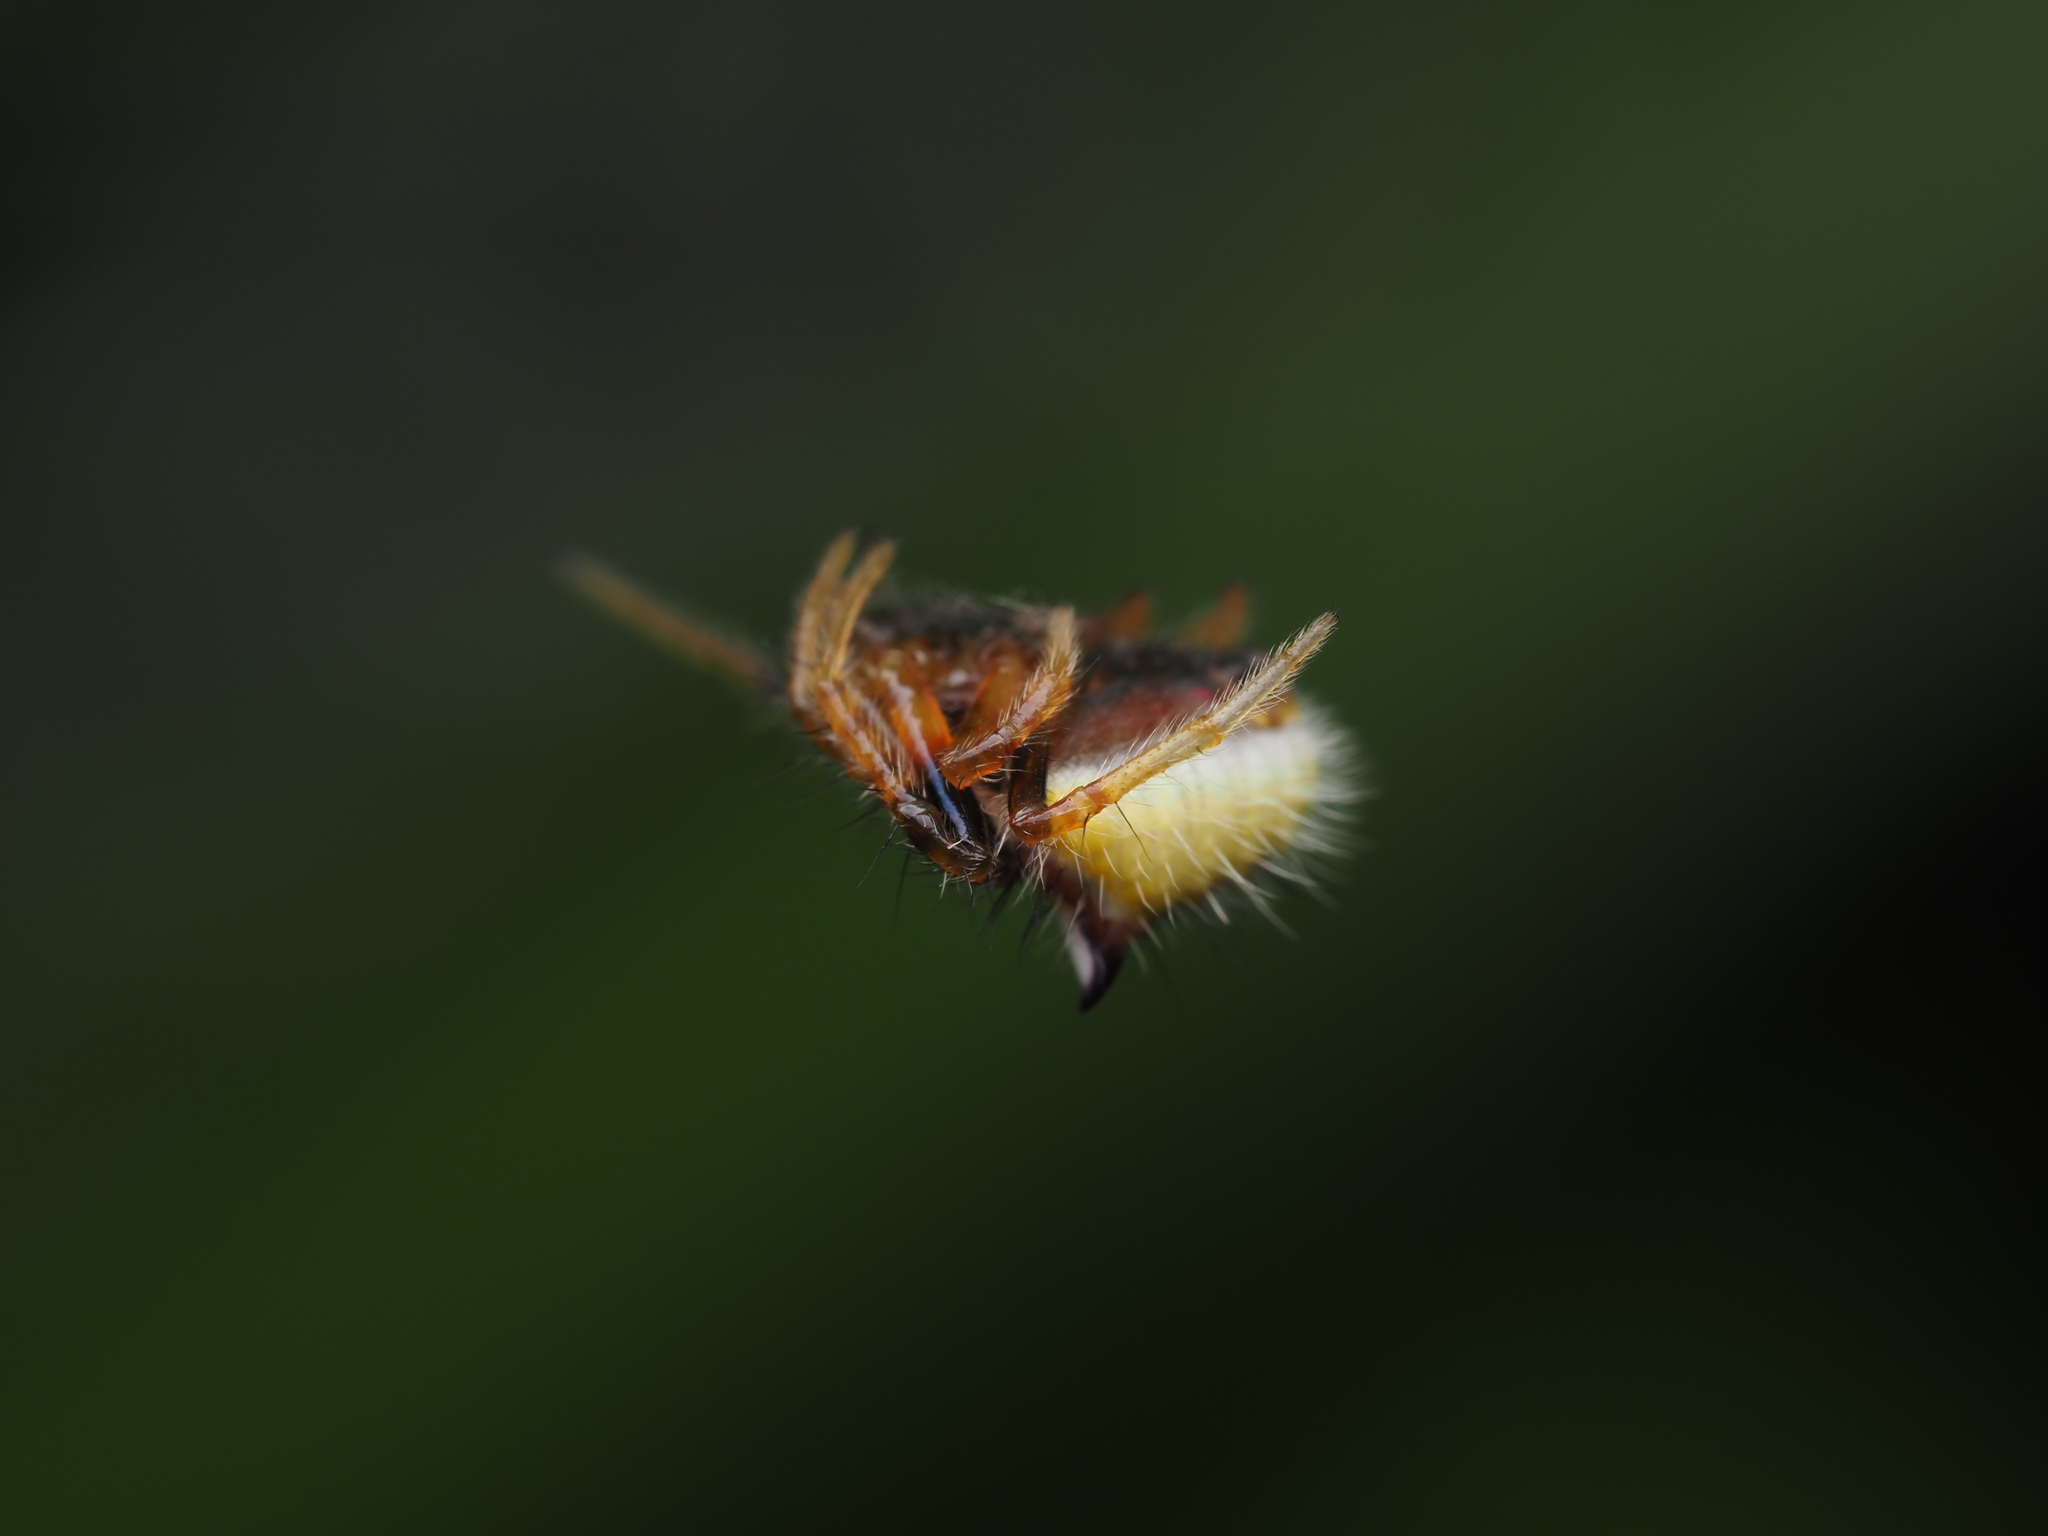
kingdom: Animalia
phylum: Arthropoda
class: Arachnida
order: Araneae
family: Araneidae
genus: Poecilopachys
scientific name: Poecilopachys australasia
